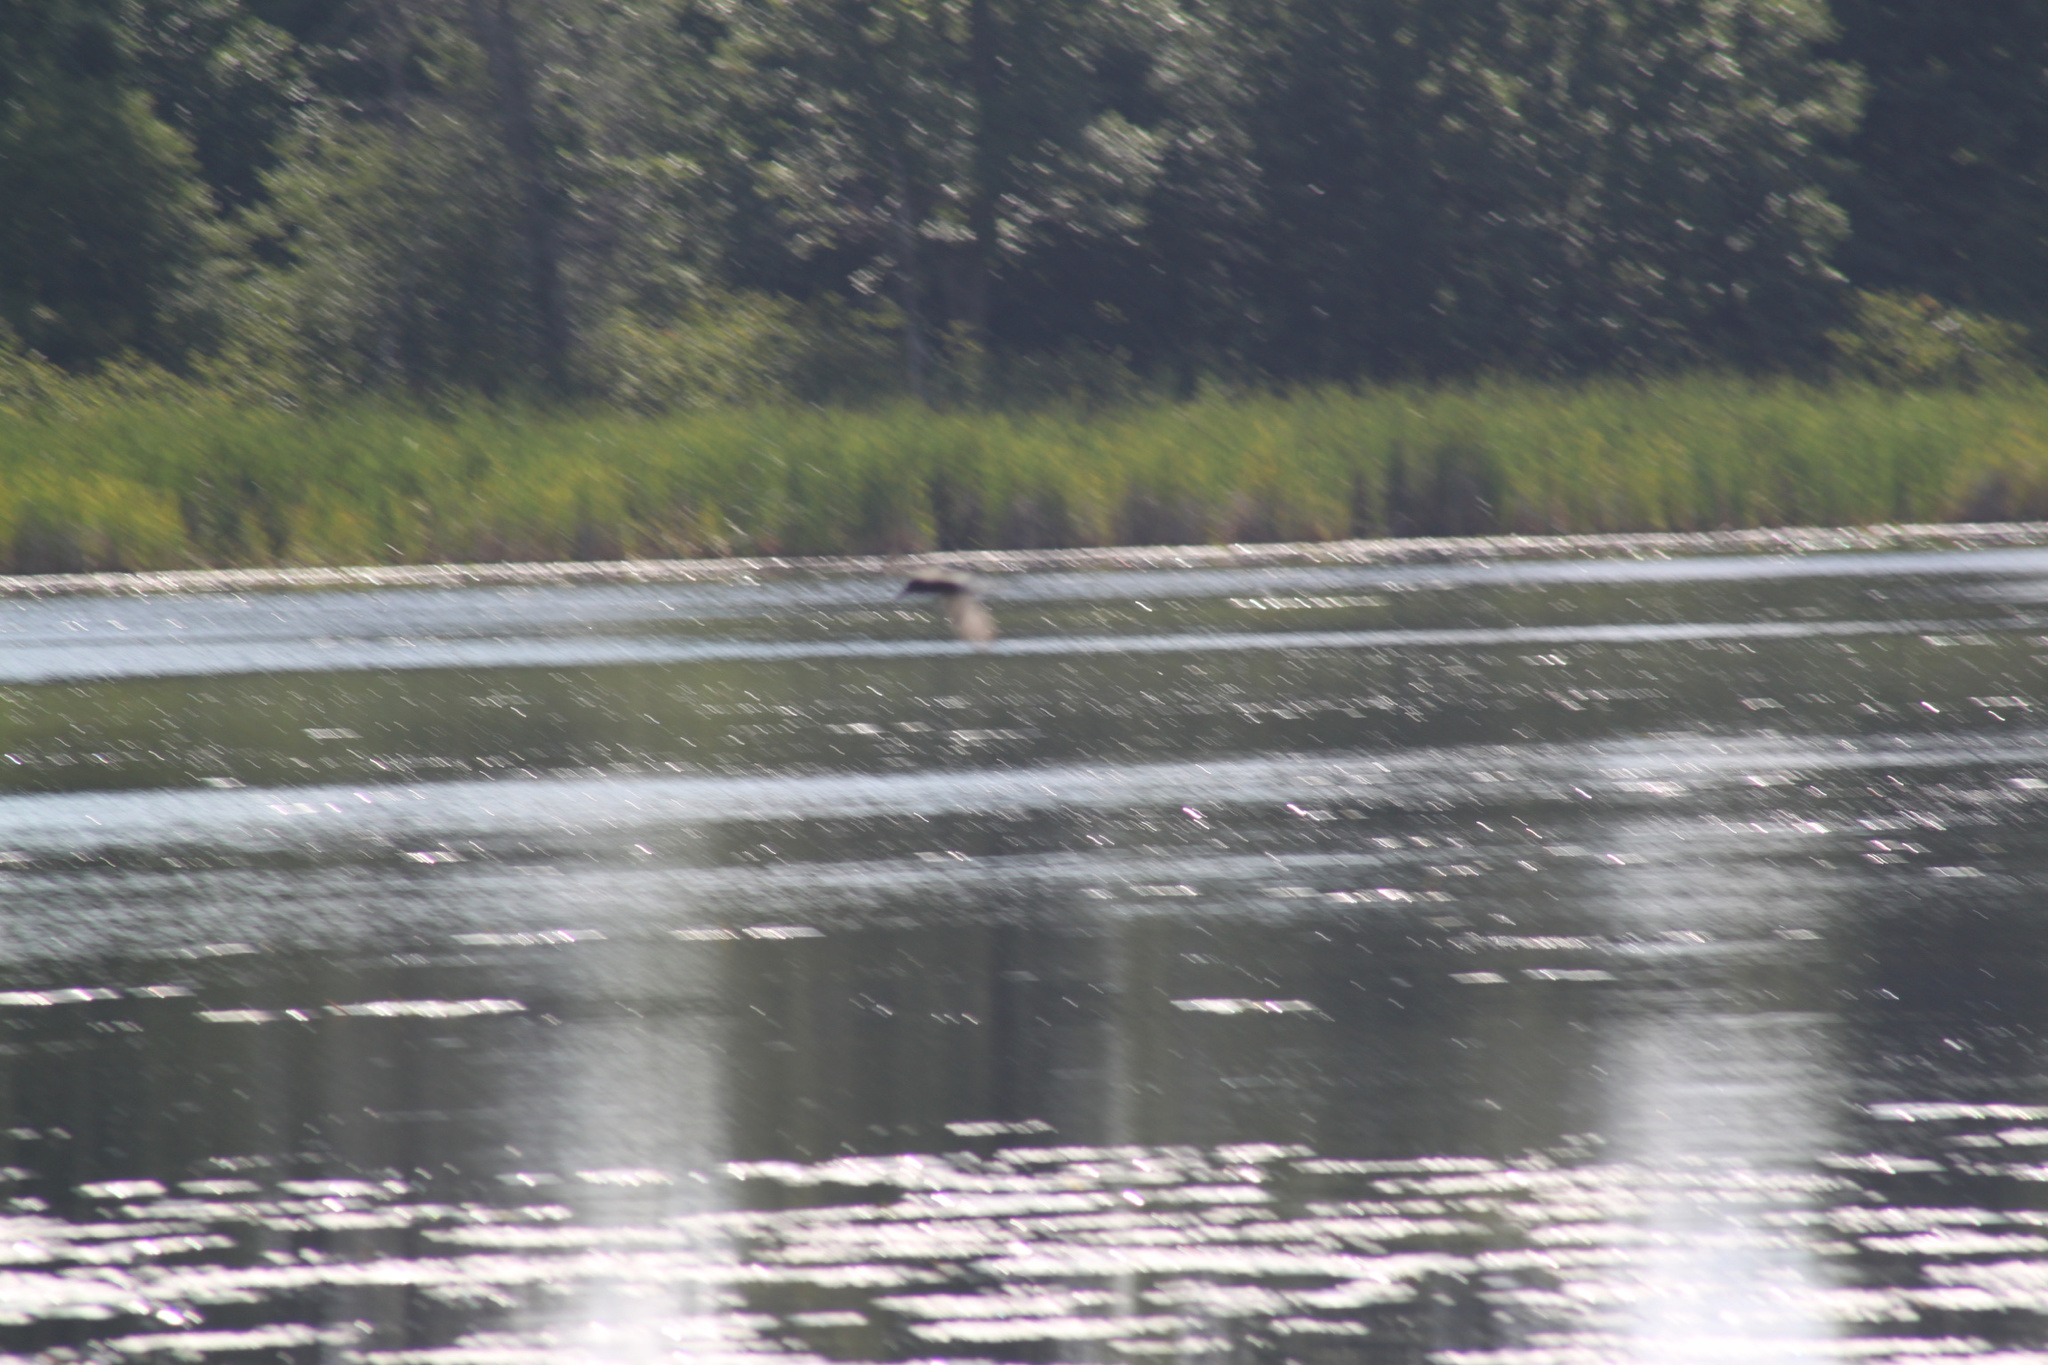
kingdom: Animalia
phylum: Chordata
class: Aves
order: Charadriiformes
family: Laridae
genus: Chlidonias
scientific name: Chlidonias niger
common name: Black tern
